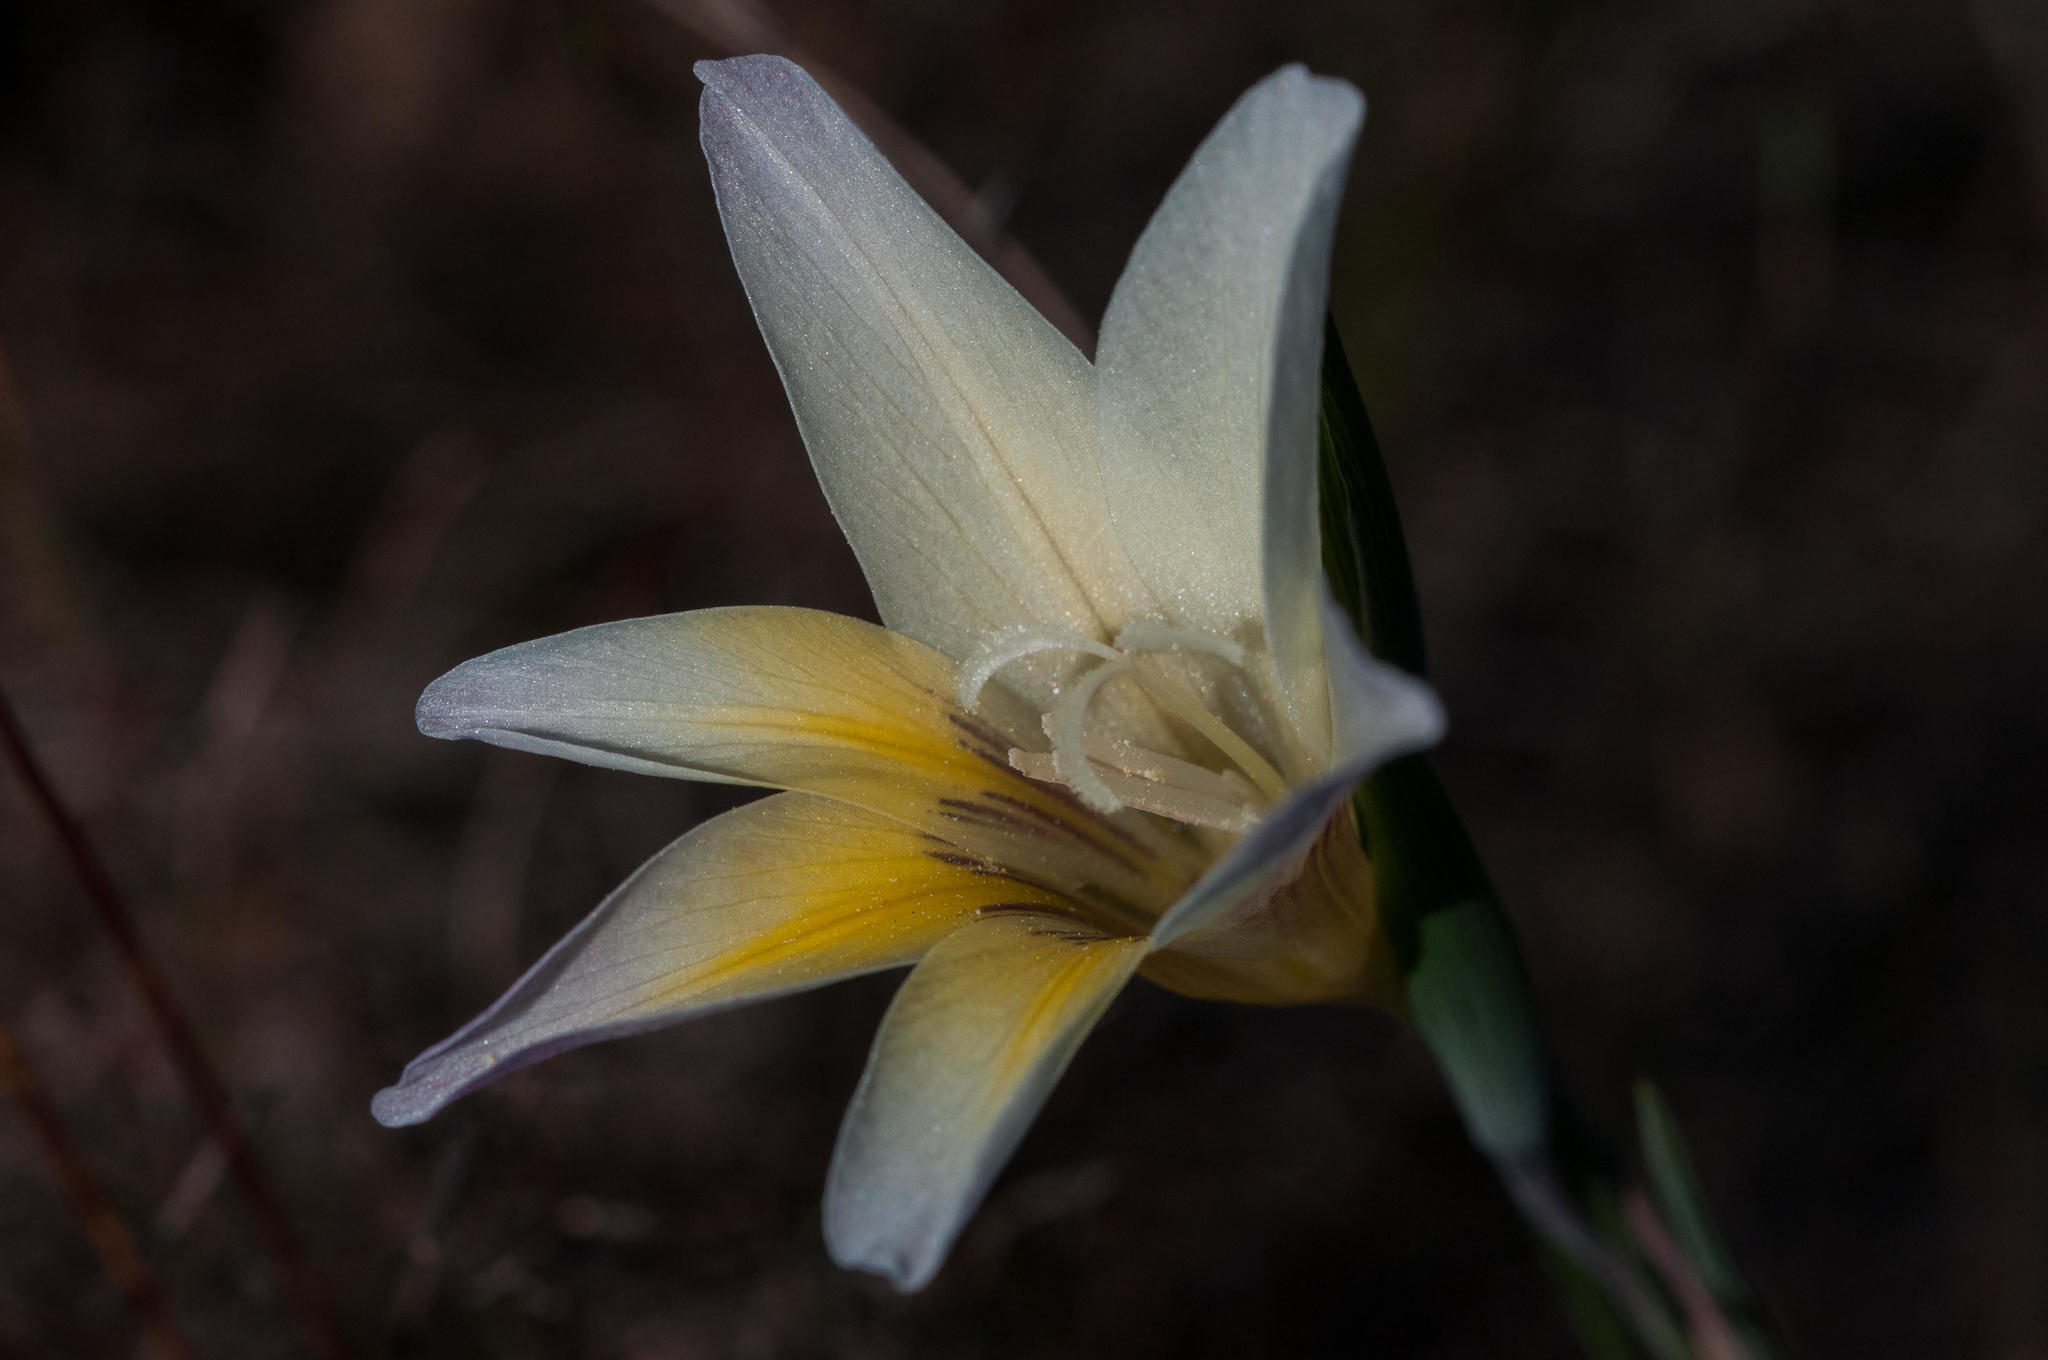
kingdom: Plantae
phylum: Tracheophyta
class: Liliopsida
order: Asparagales
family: Iridaceae
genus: Gladiolus
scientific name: Gladiolus trichonemifolius
